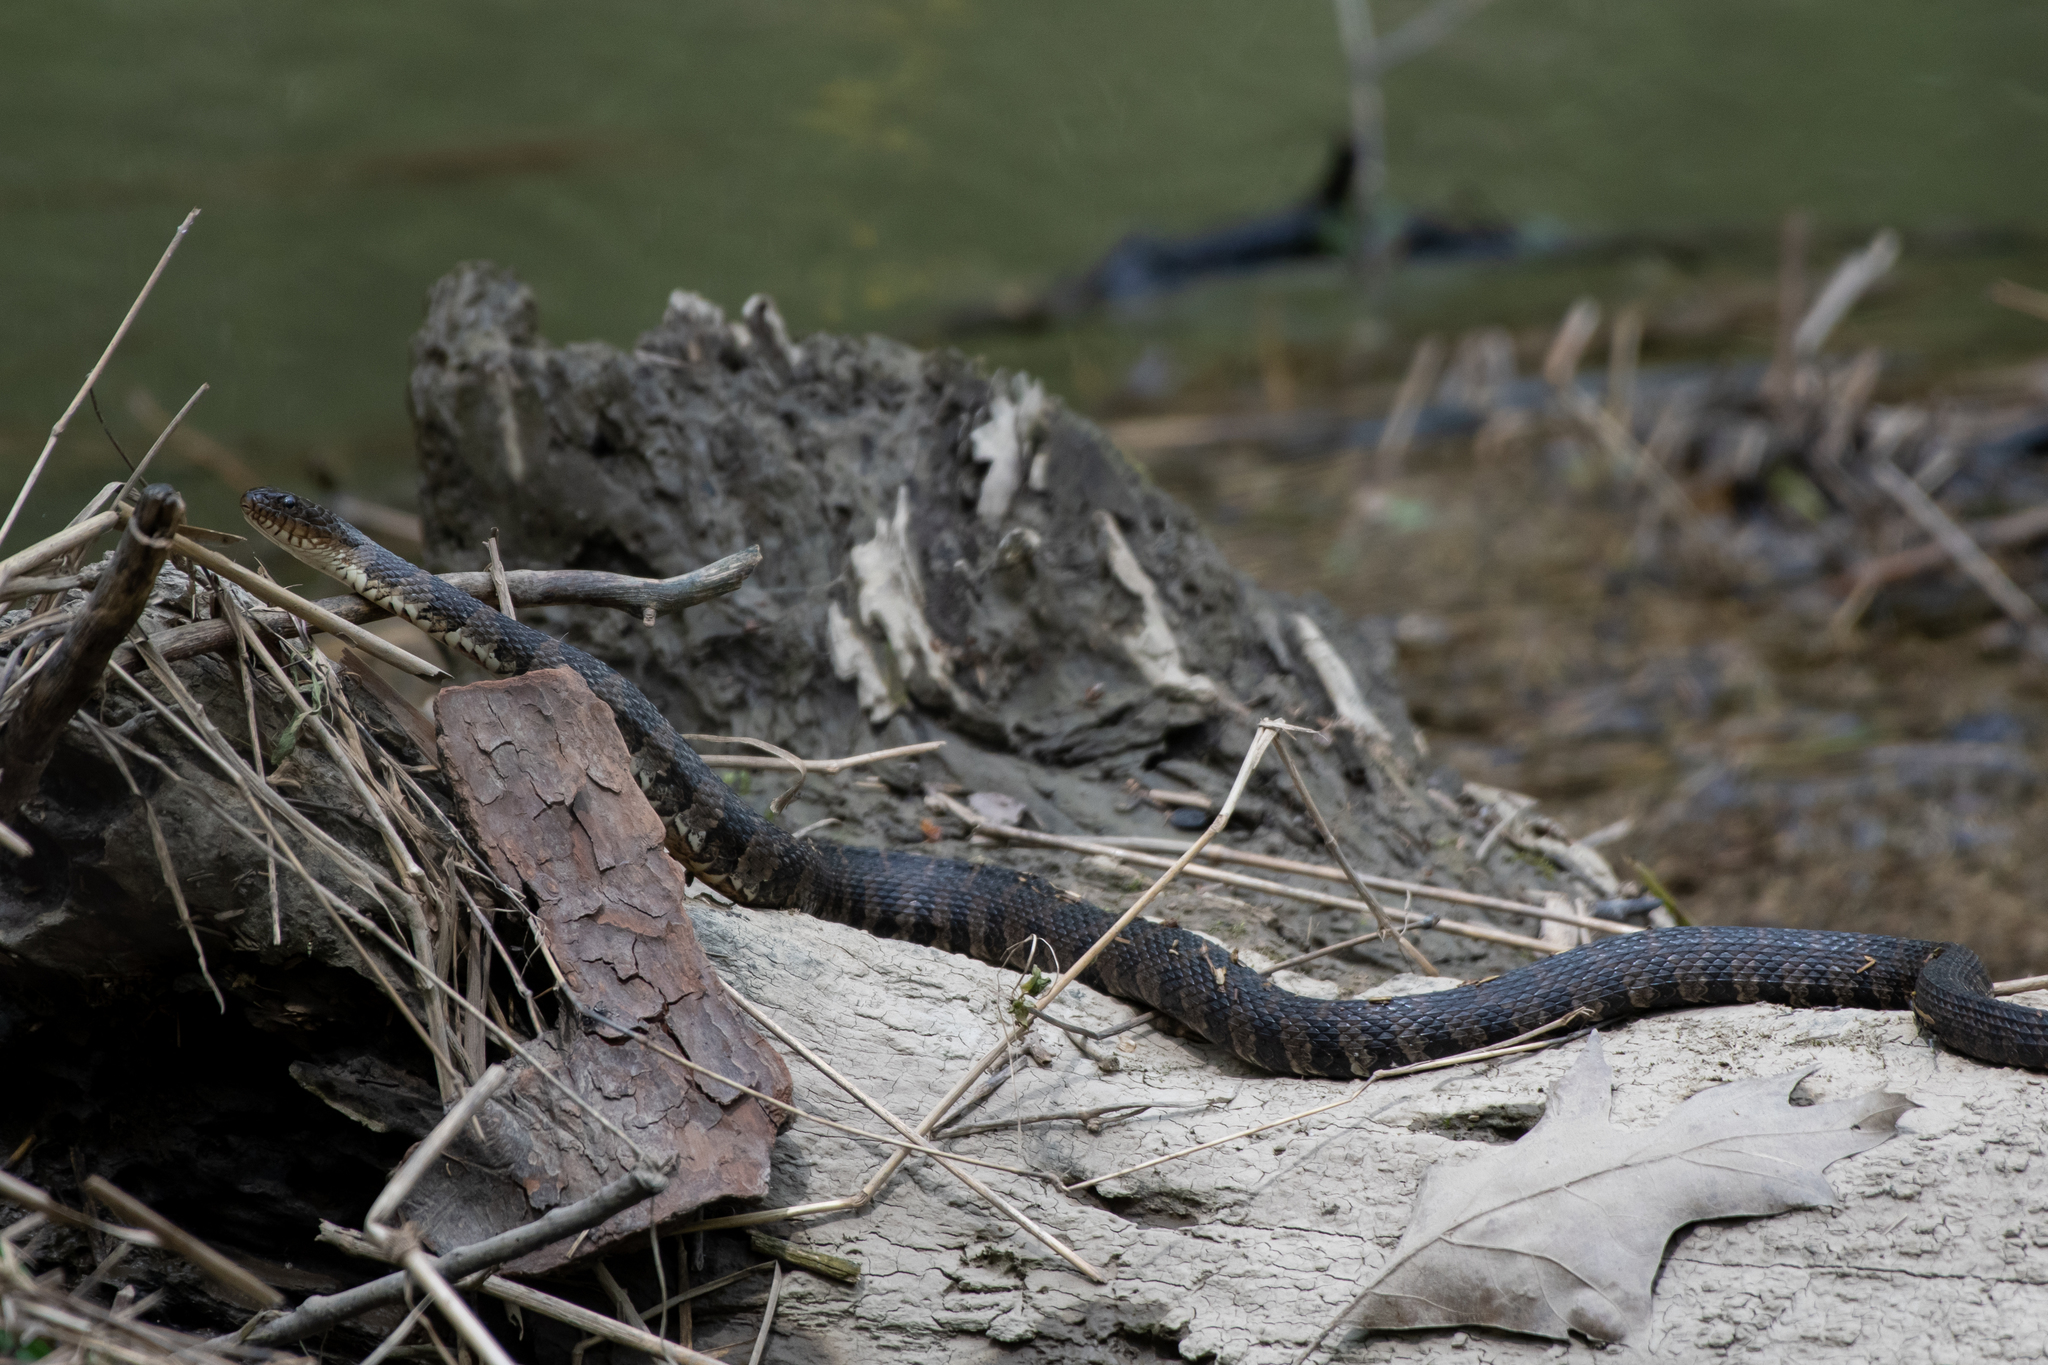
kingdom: Animalia
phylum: Chordata
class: Squamata
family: Colubridae
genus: Nerodia
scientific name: Nerodia sipedon
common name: Northern water snake
